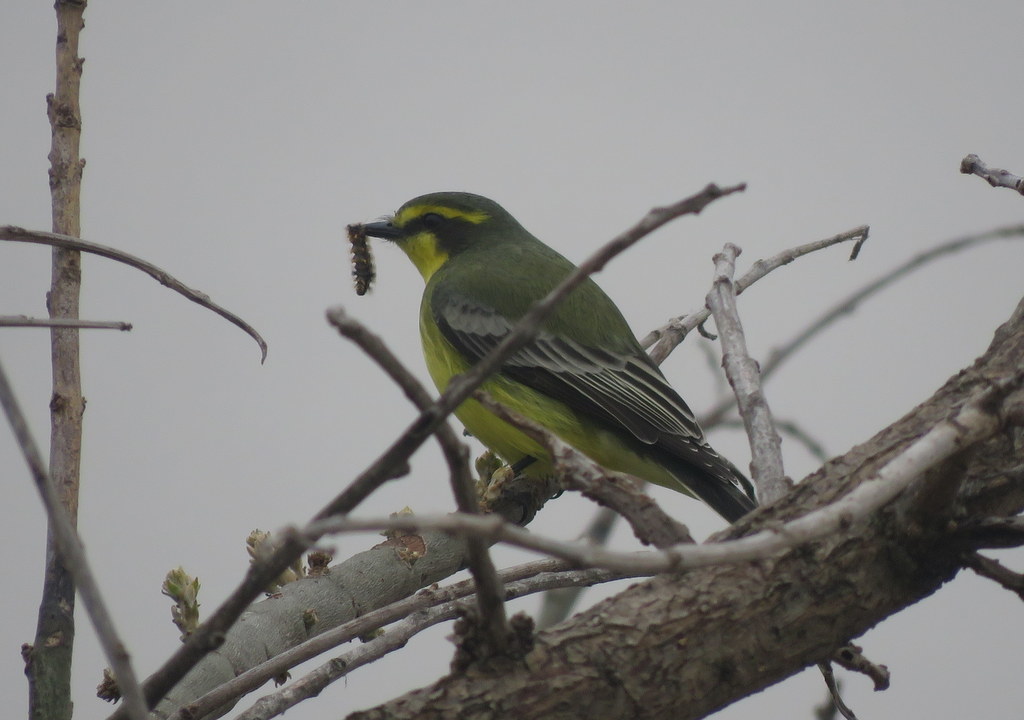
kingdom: Animalia
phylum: Chordata
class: Aves
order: Passeriformes
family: Tyrannidae
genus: Satrapa
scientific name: Satrapa icterophrys
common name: Yellow-browed tyrant
